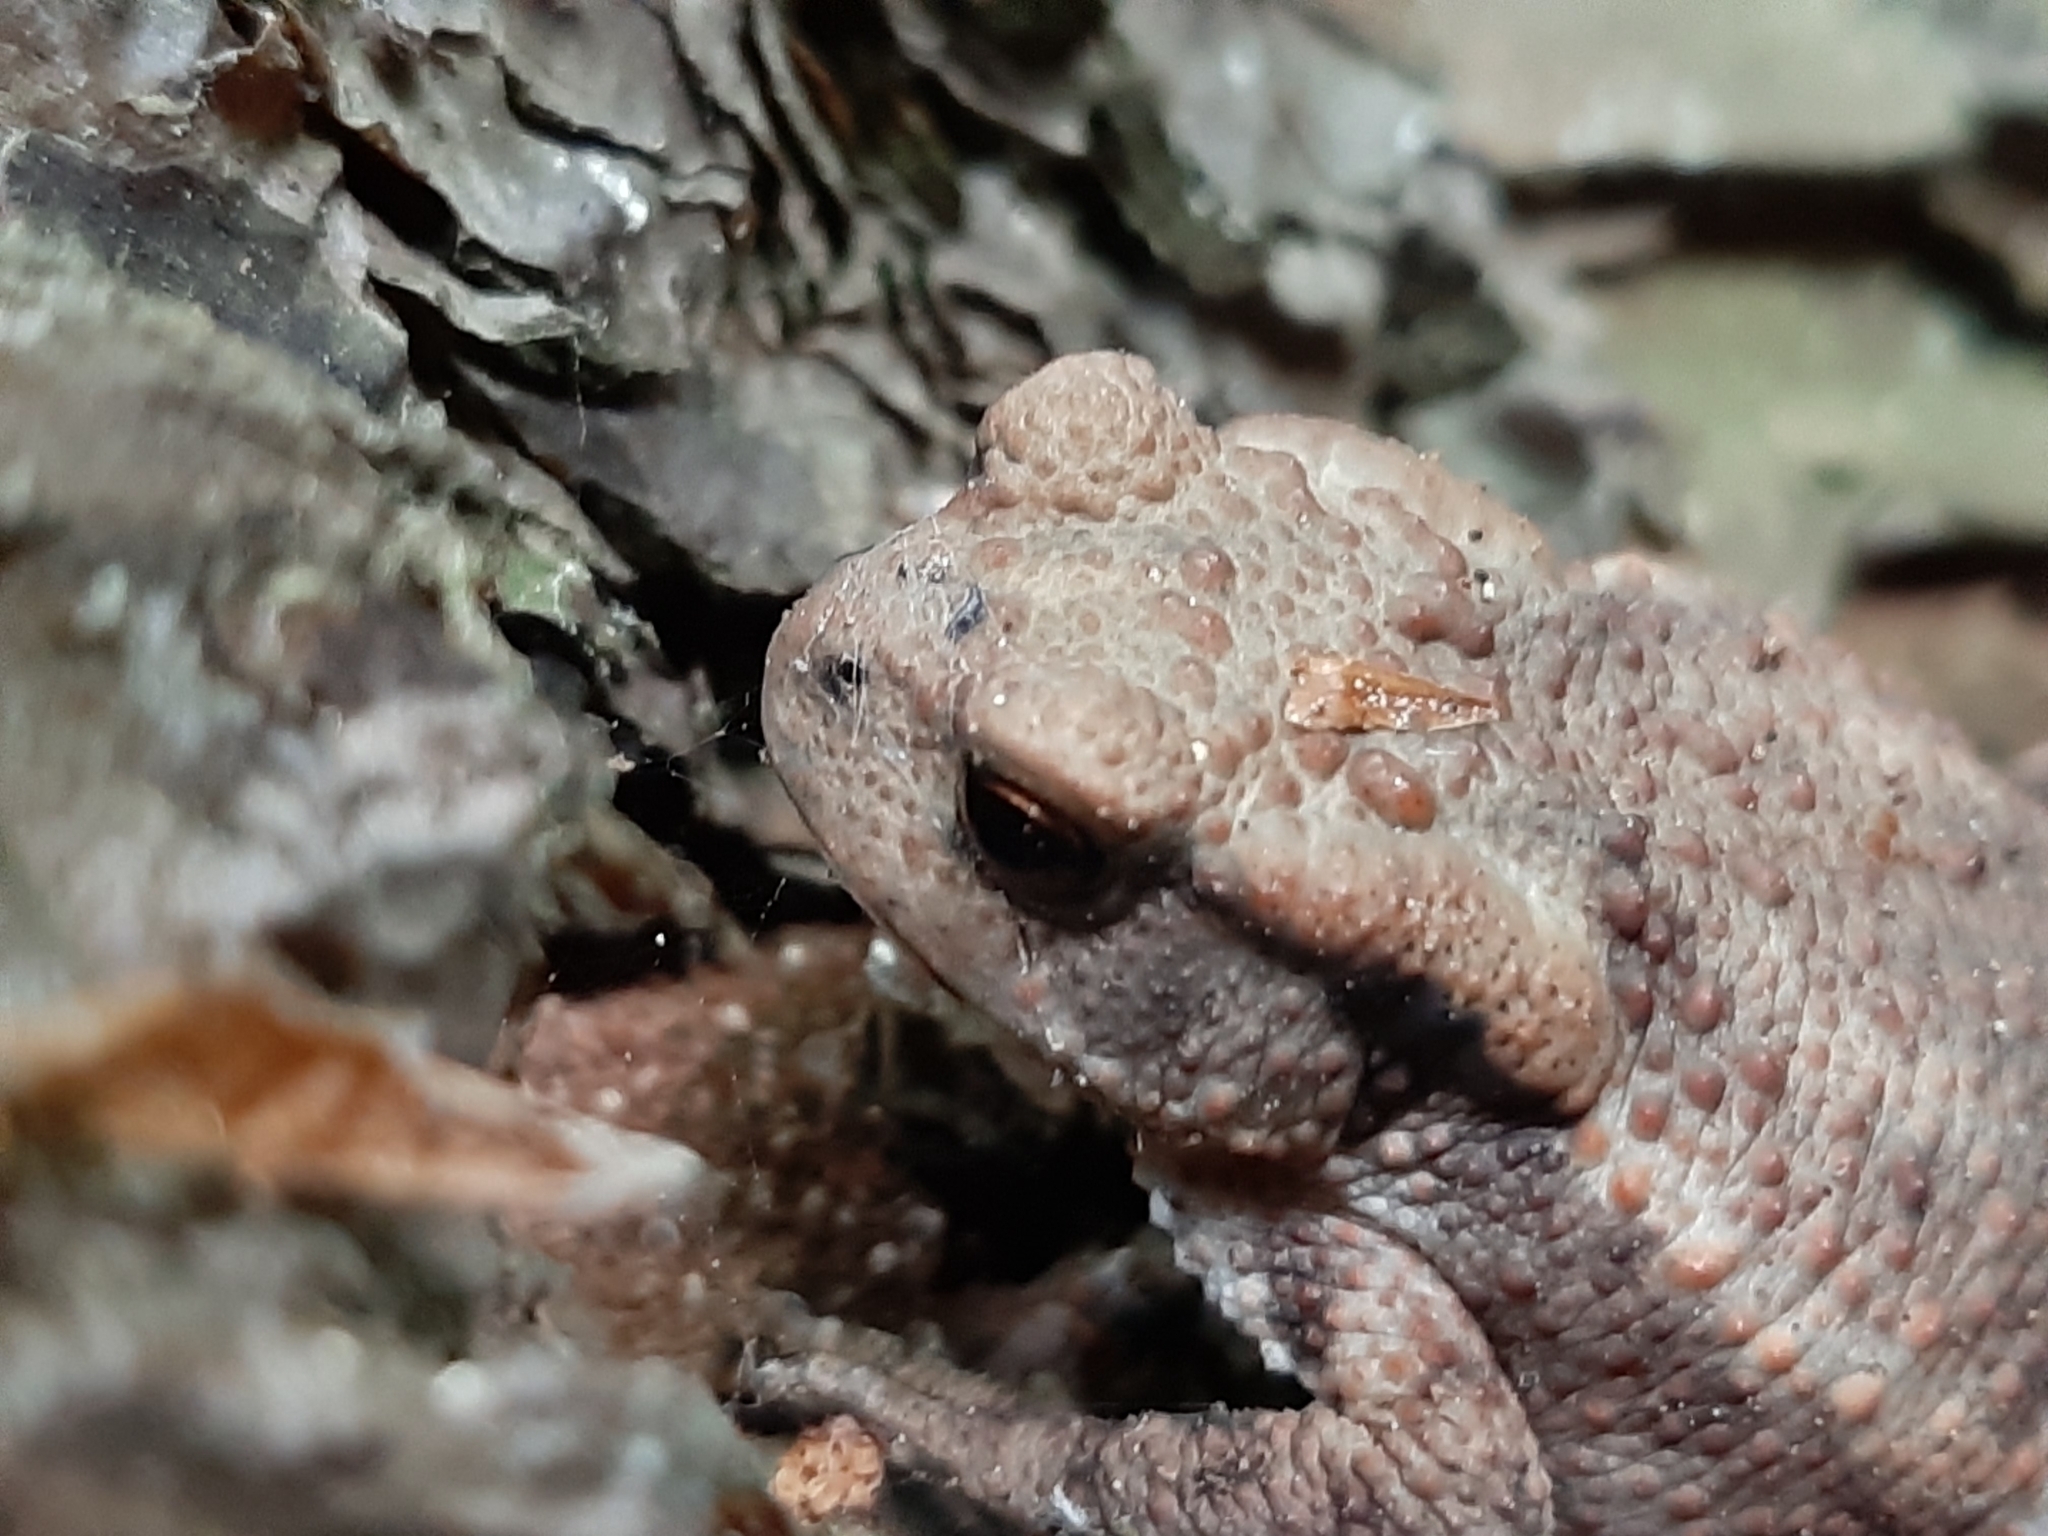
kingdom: Animalia
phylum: Chordata
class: Amphibia
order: Anura
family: Bufonidae
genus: Bufo
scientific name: Bufo bufo
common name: Common toad
